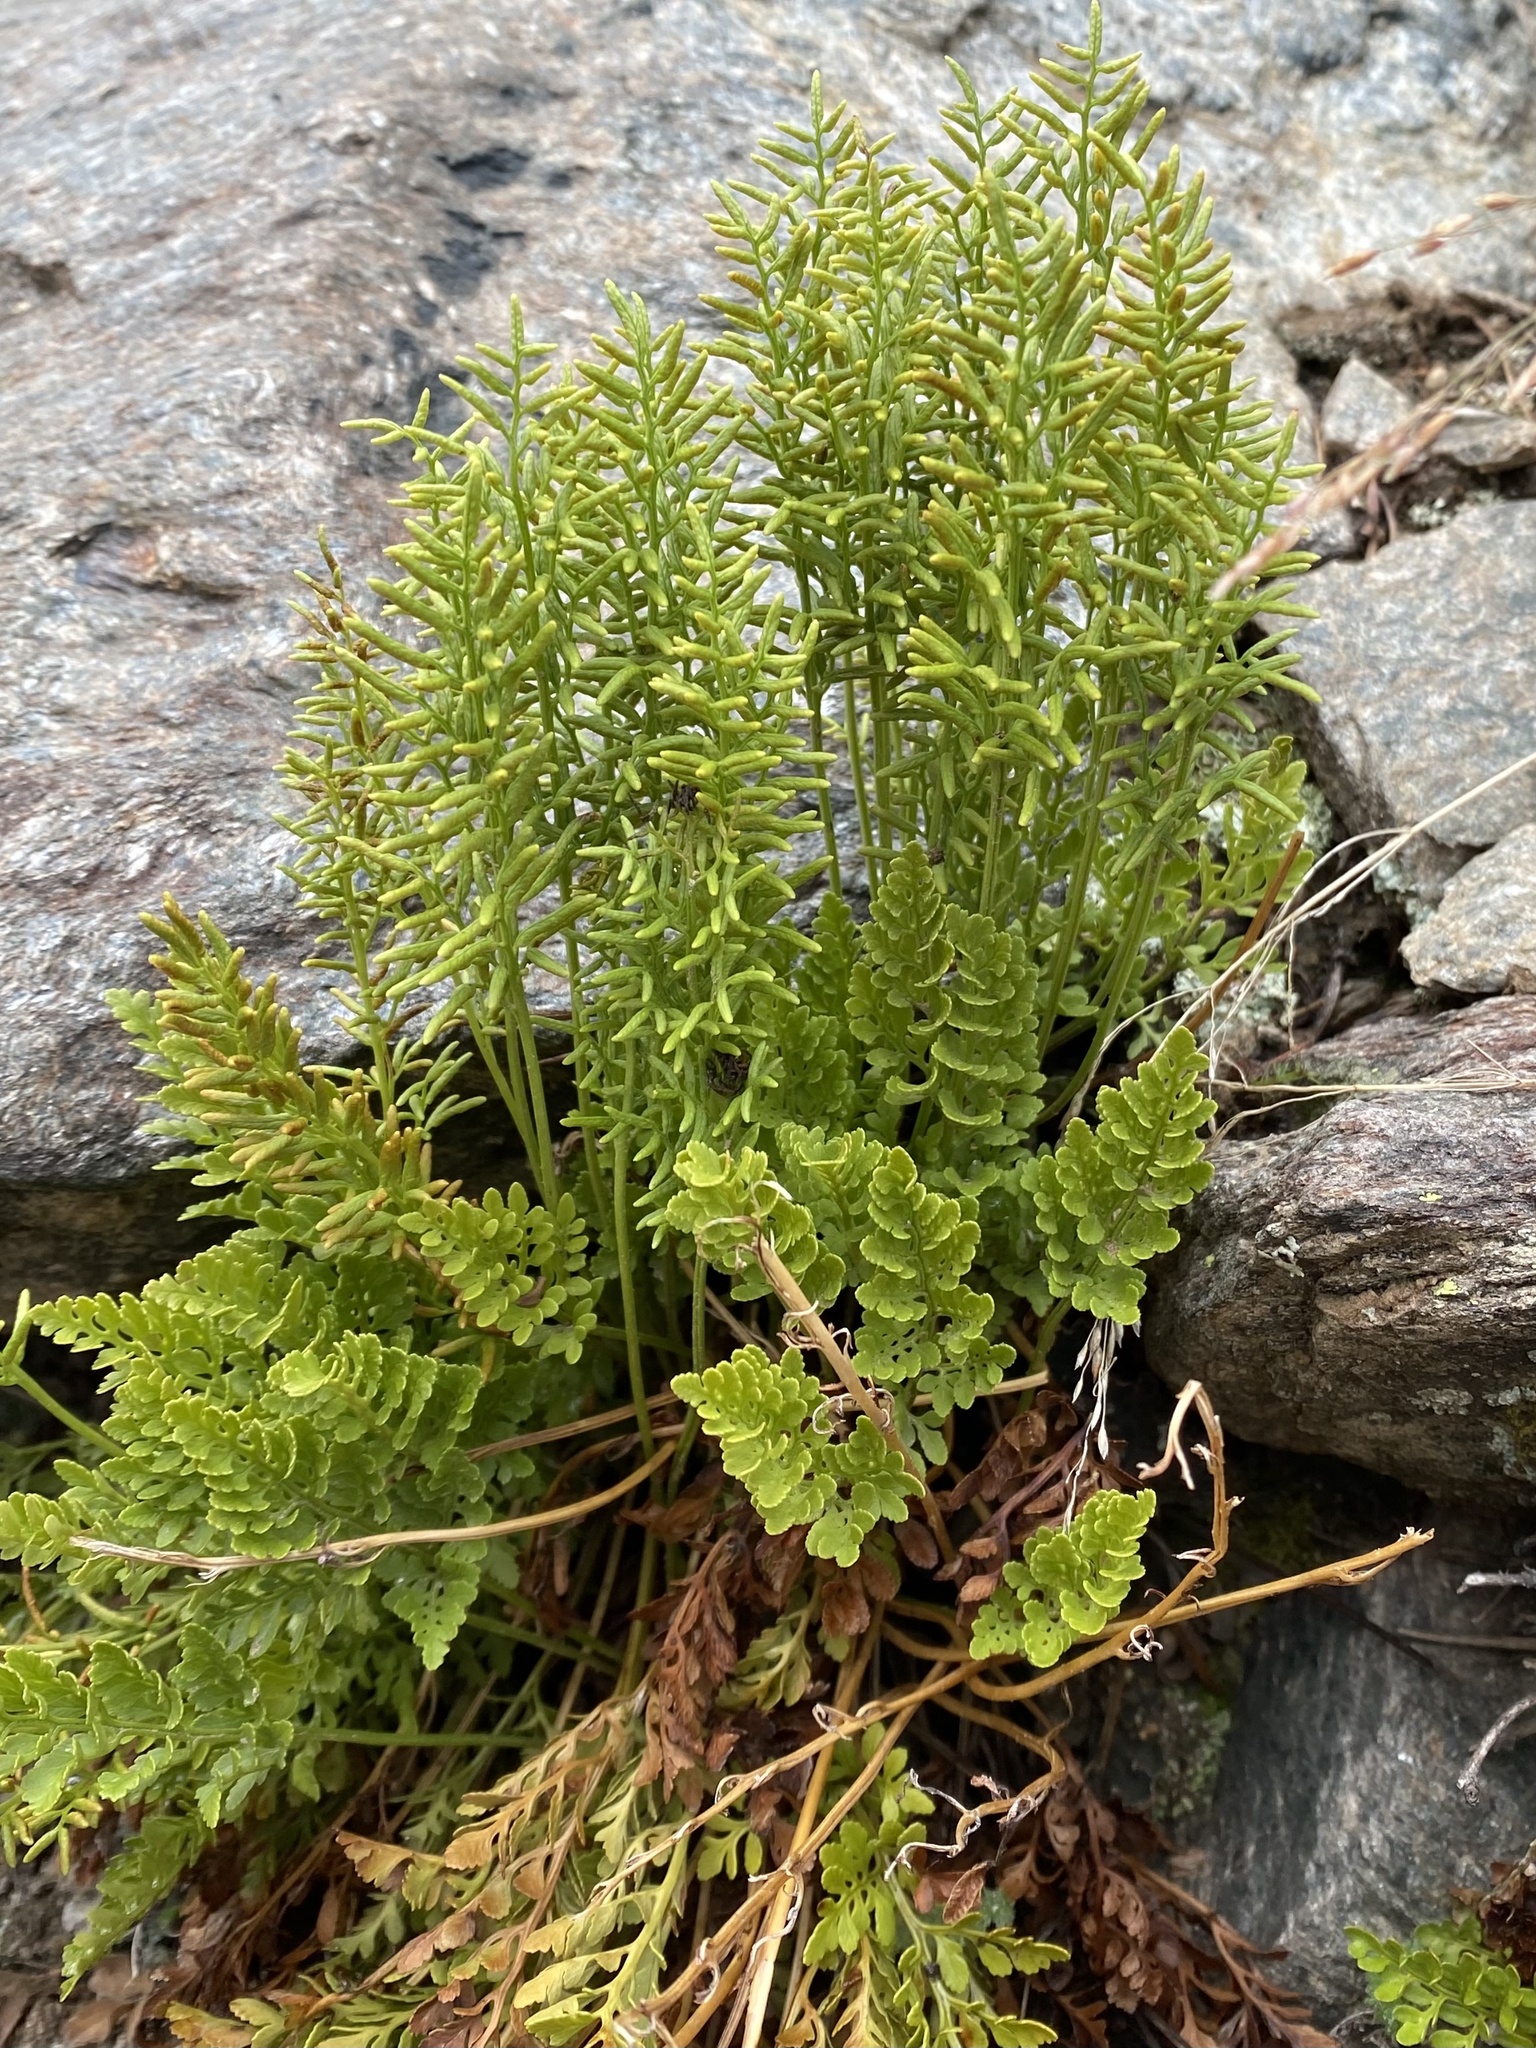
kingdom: Plantae
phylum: Tracheophyta
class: Polypodiopsida
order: Polypodiales
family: Pteridaceae
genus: Cryptogramma
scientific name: Cryptogramma acrostichoides
